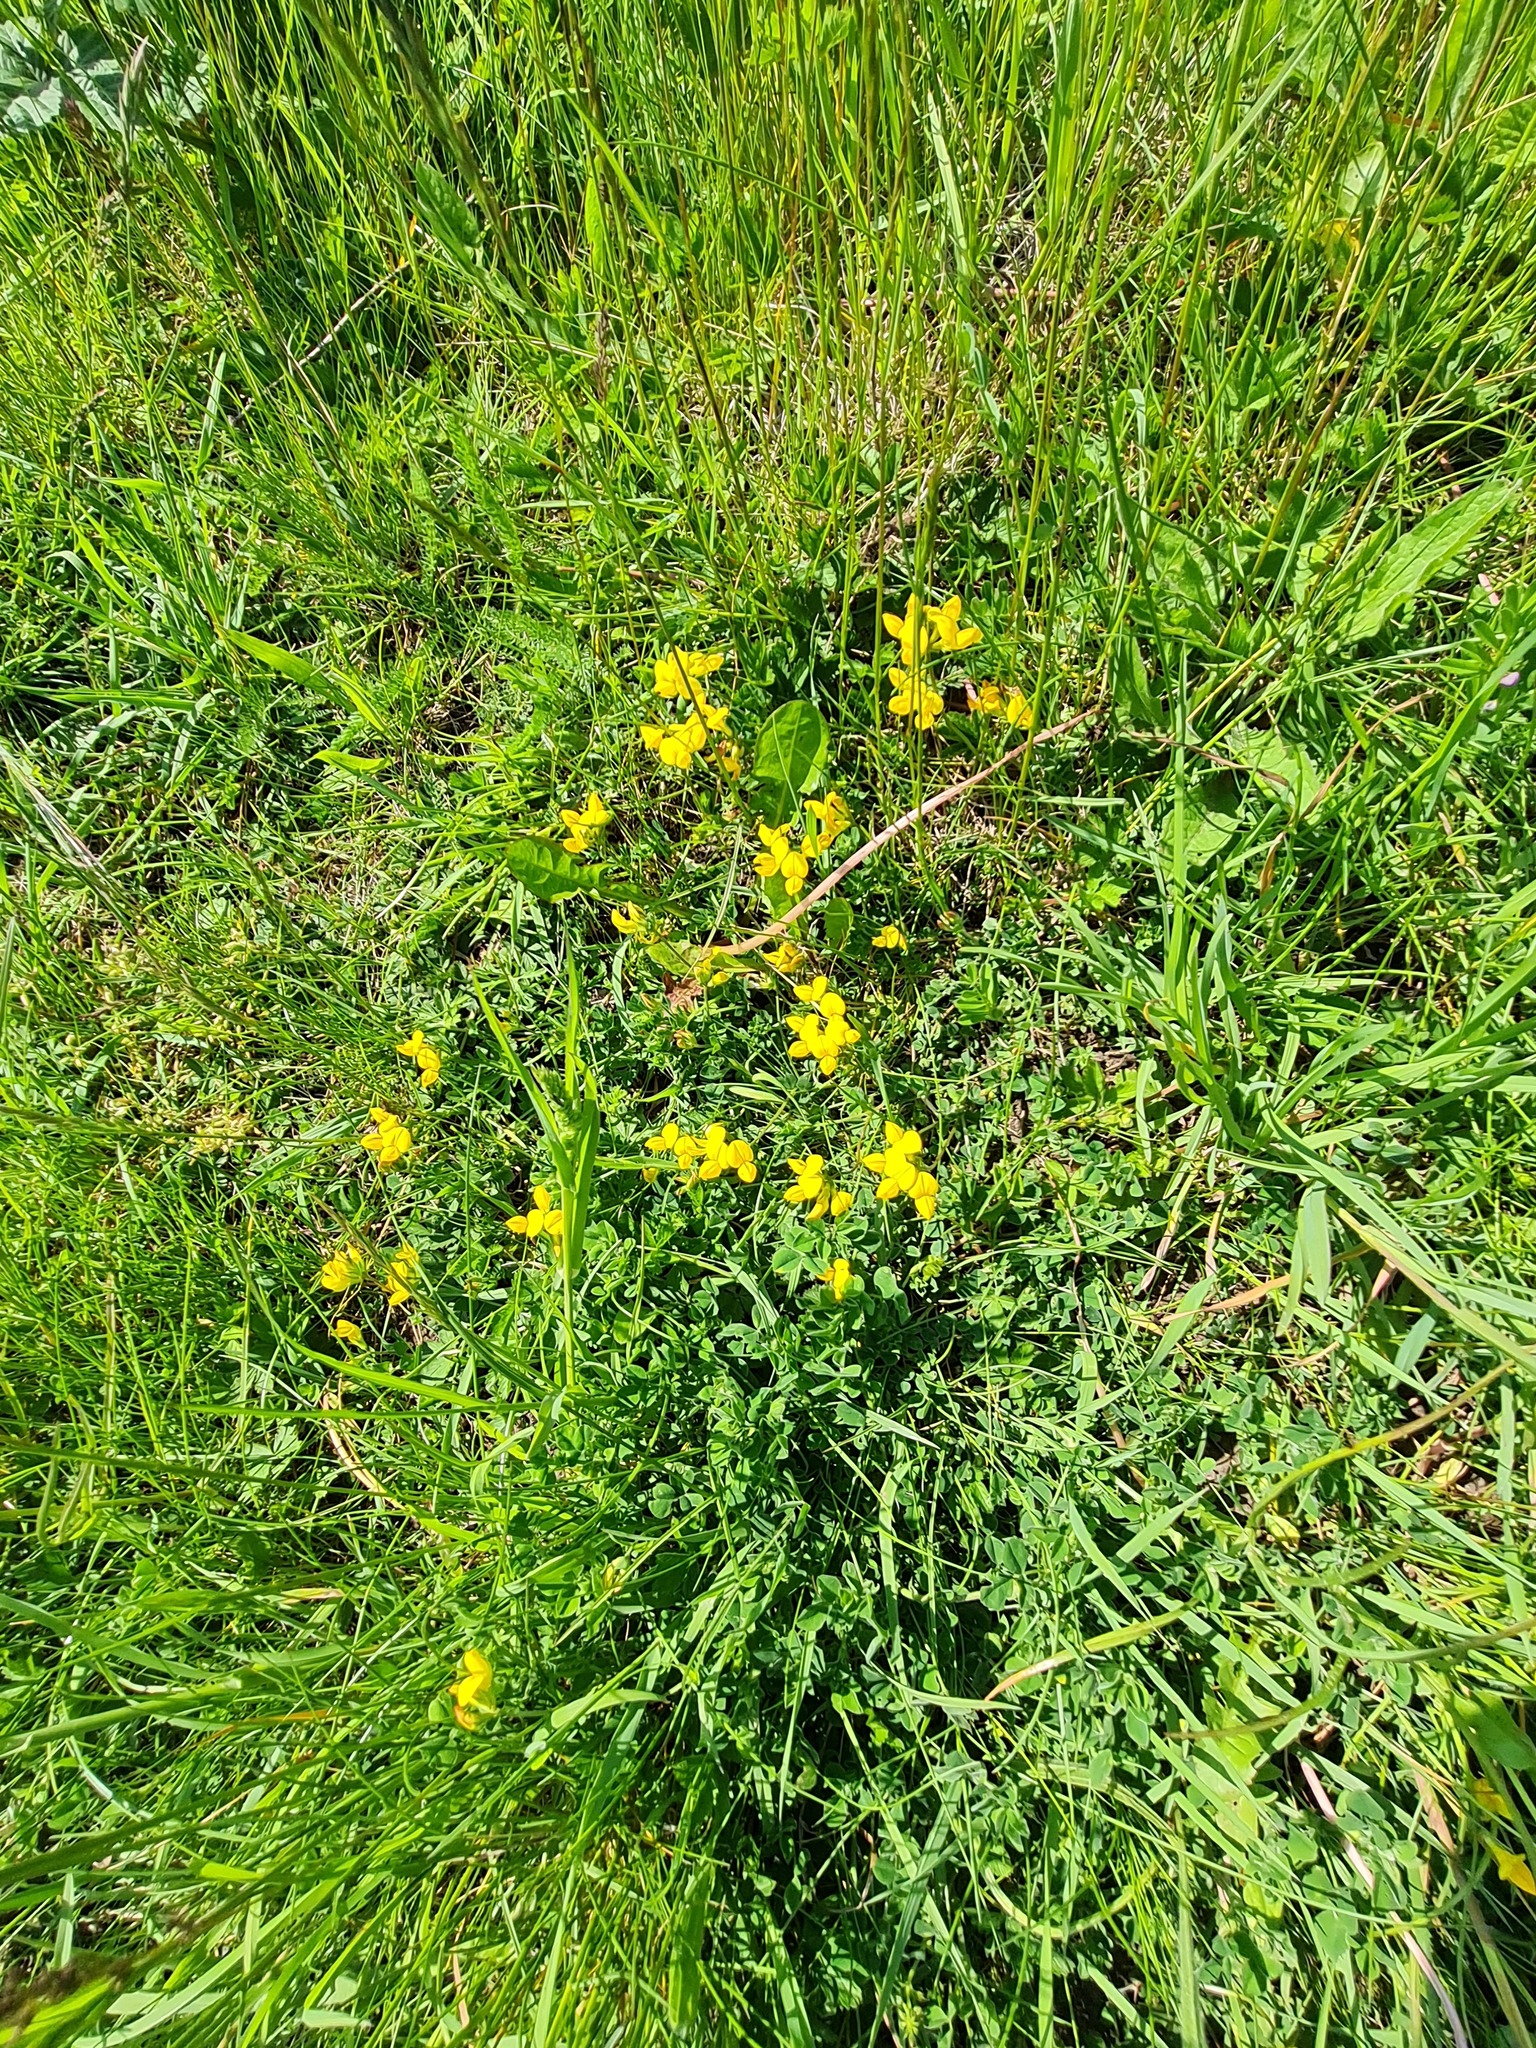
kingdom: Plantae
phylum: Tracheophyta
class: Magnoliopsida
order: Fabales
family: Fabaceae
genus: Lotus
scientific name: Lotus corniculatus
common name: Common bird's-foot-trefoil
